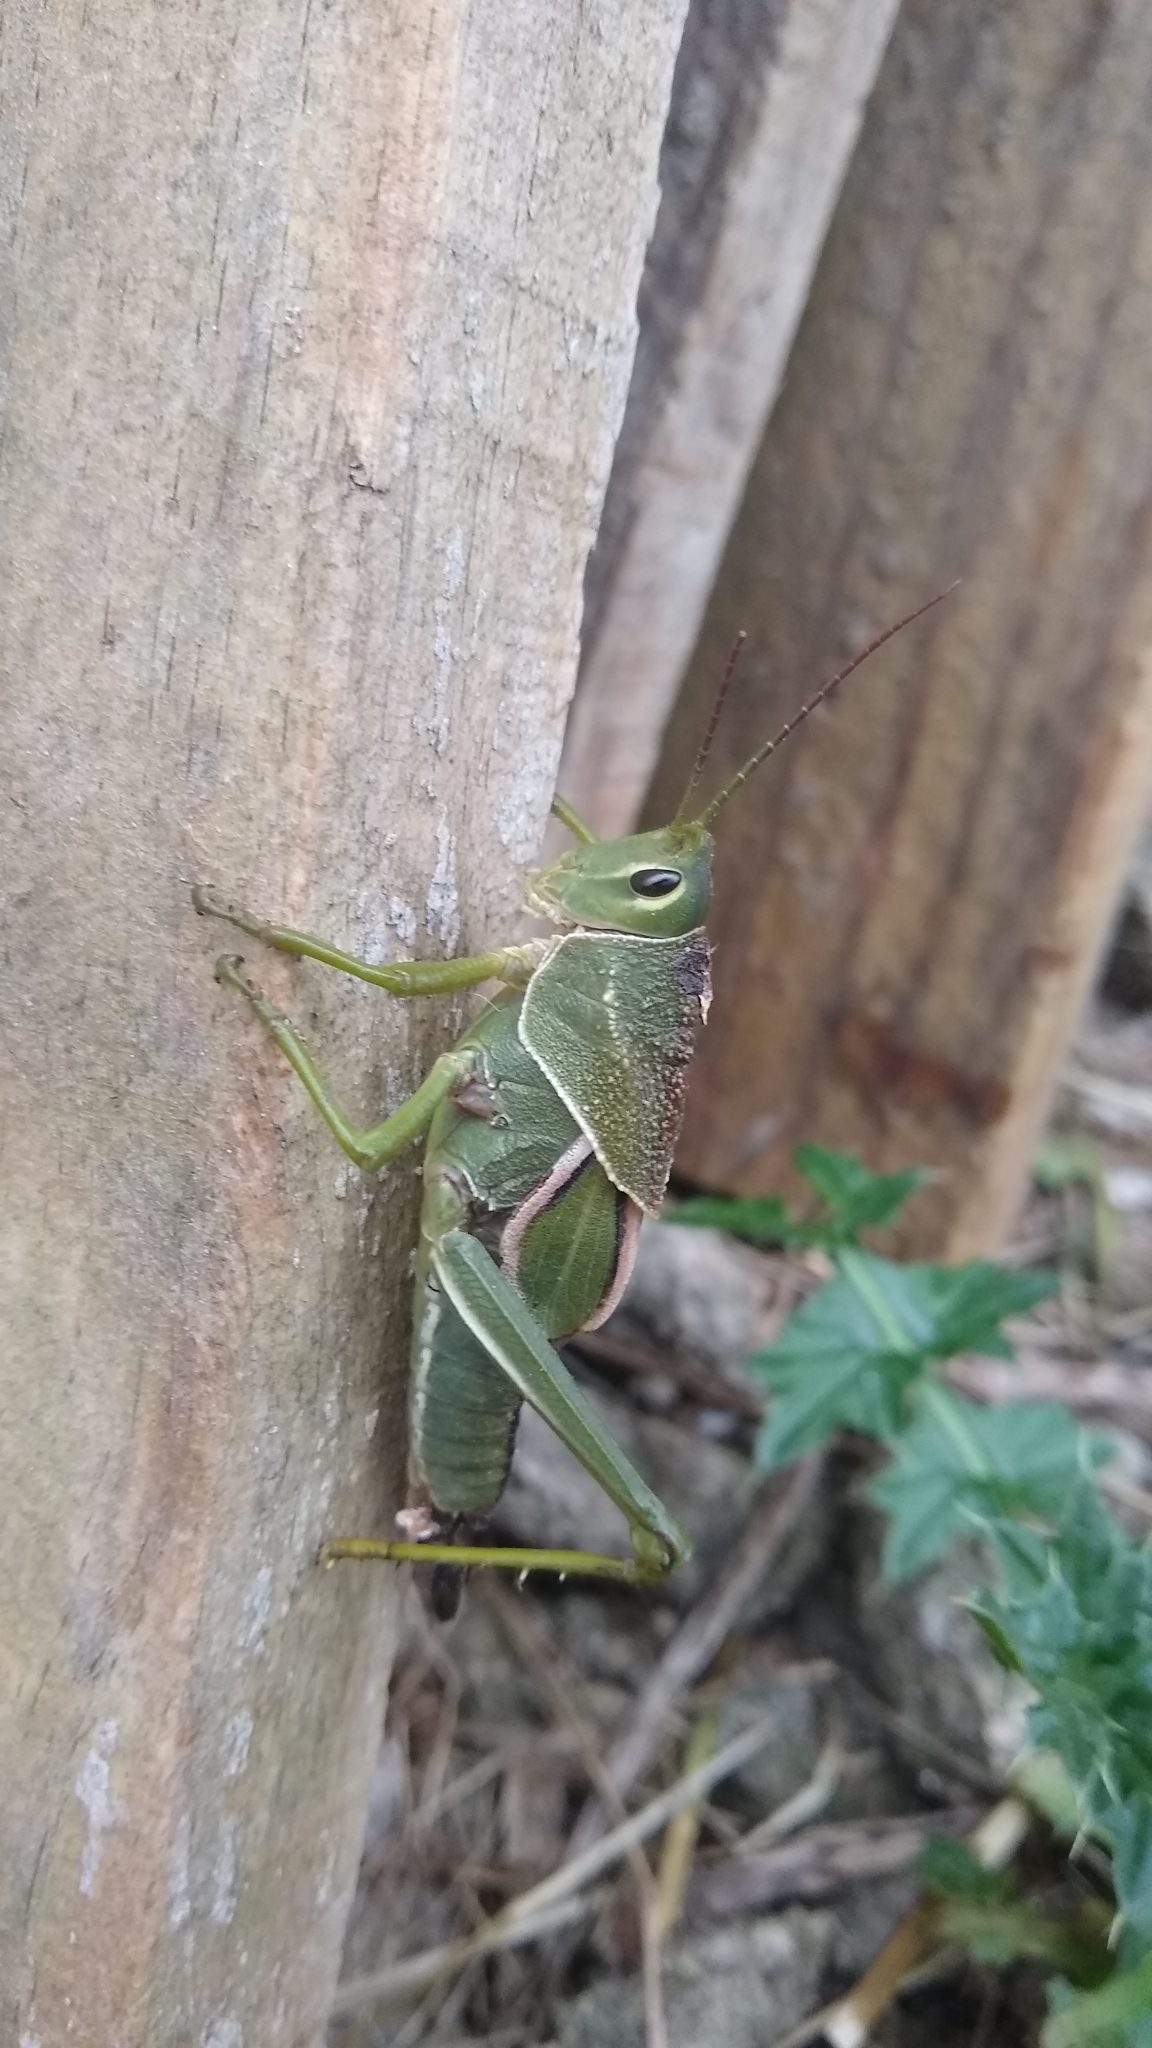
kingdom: Animalia
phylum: Arthropoda
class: Insecta
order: Orthoptera
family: Romaleidae
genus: Staleochlora
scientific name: Staleochlora viridicata
